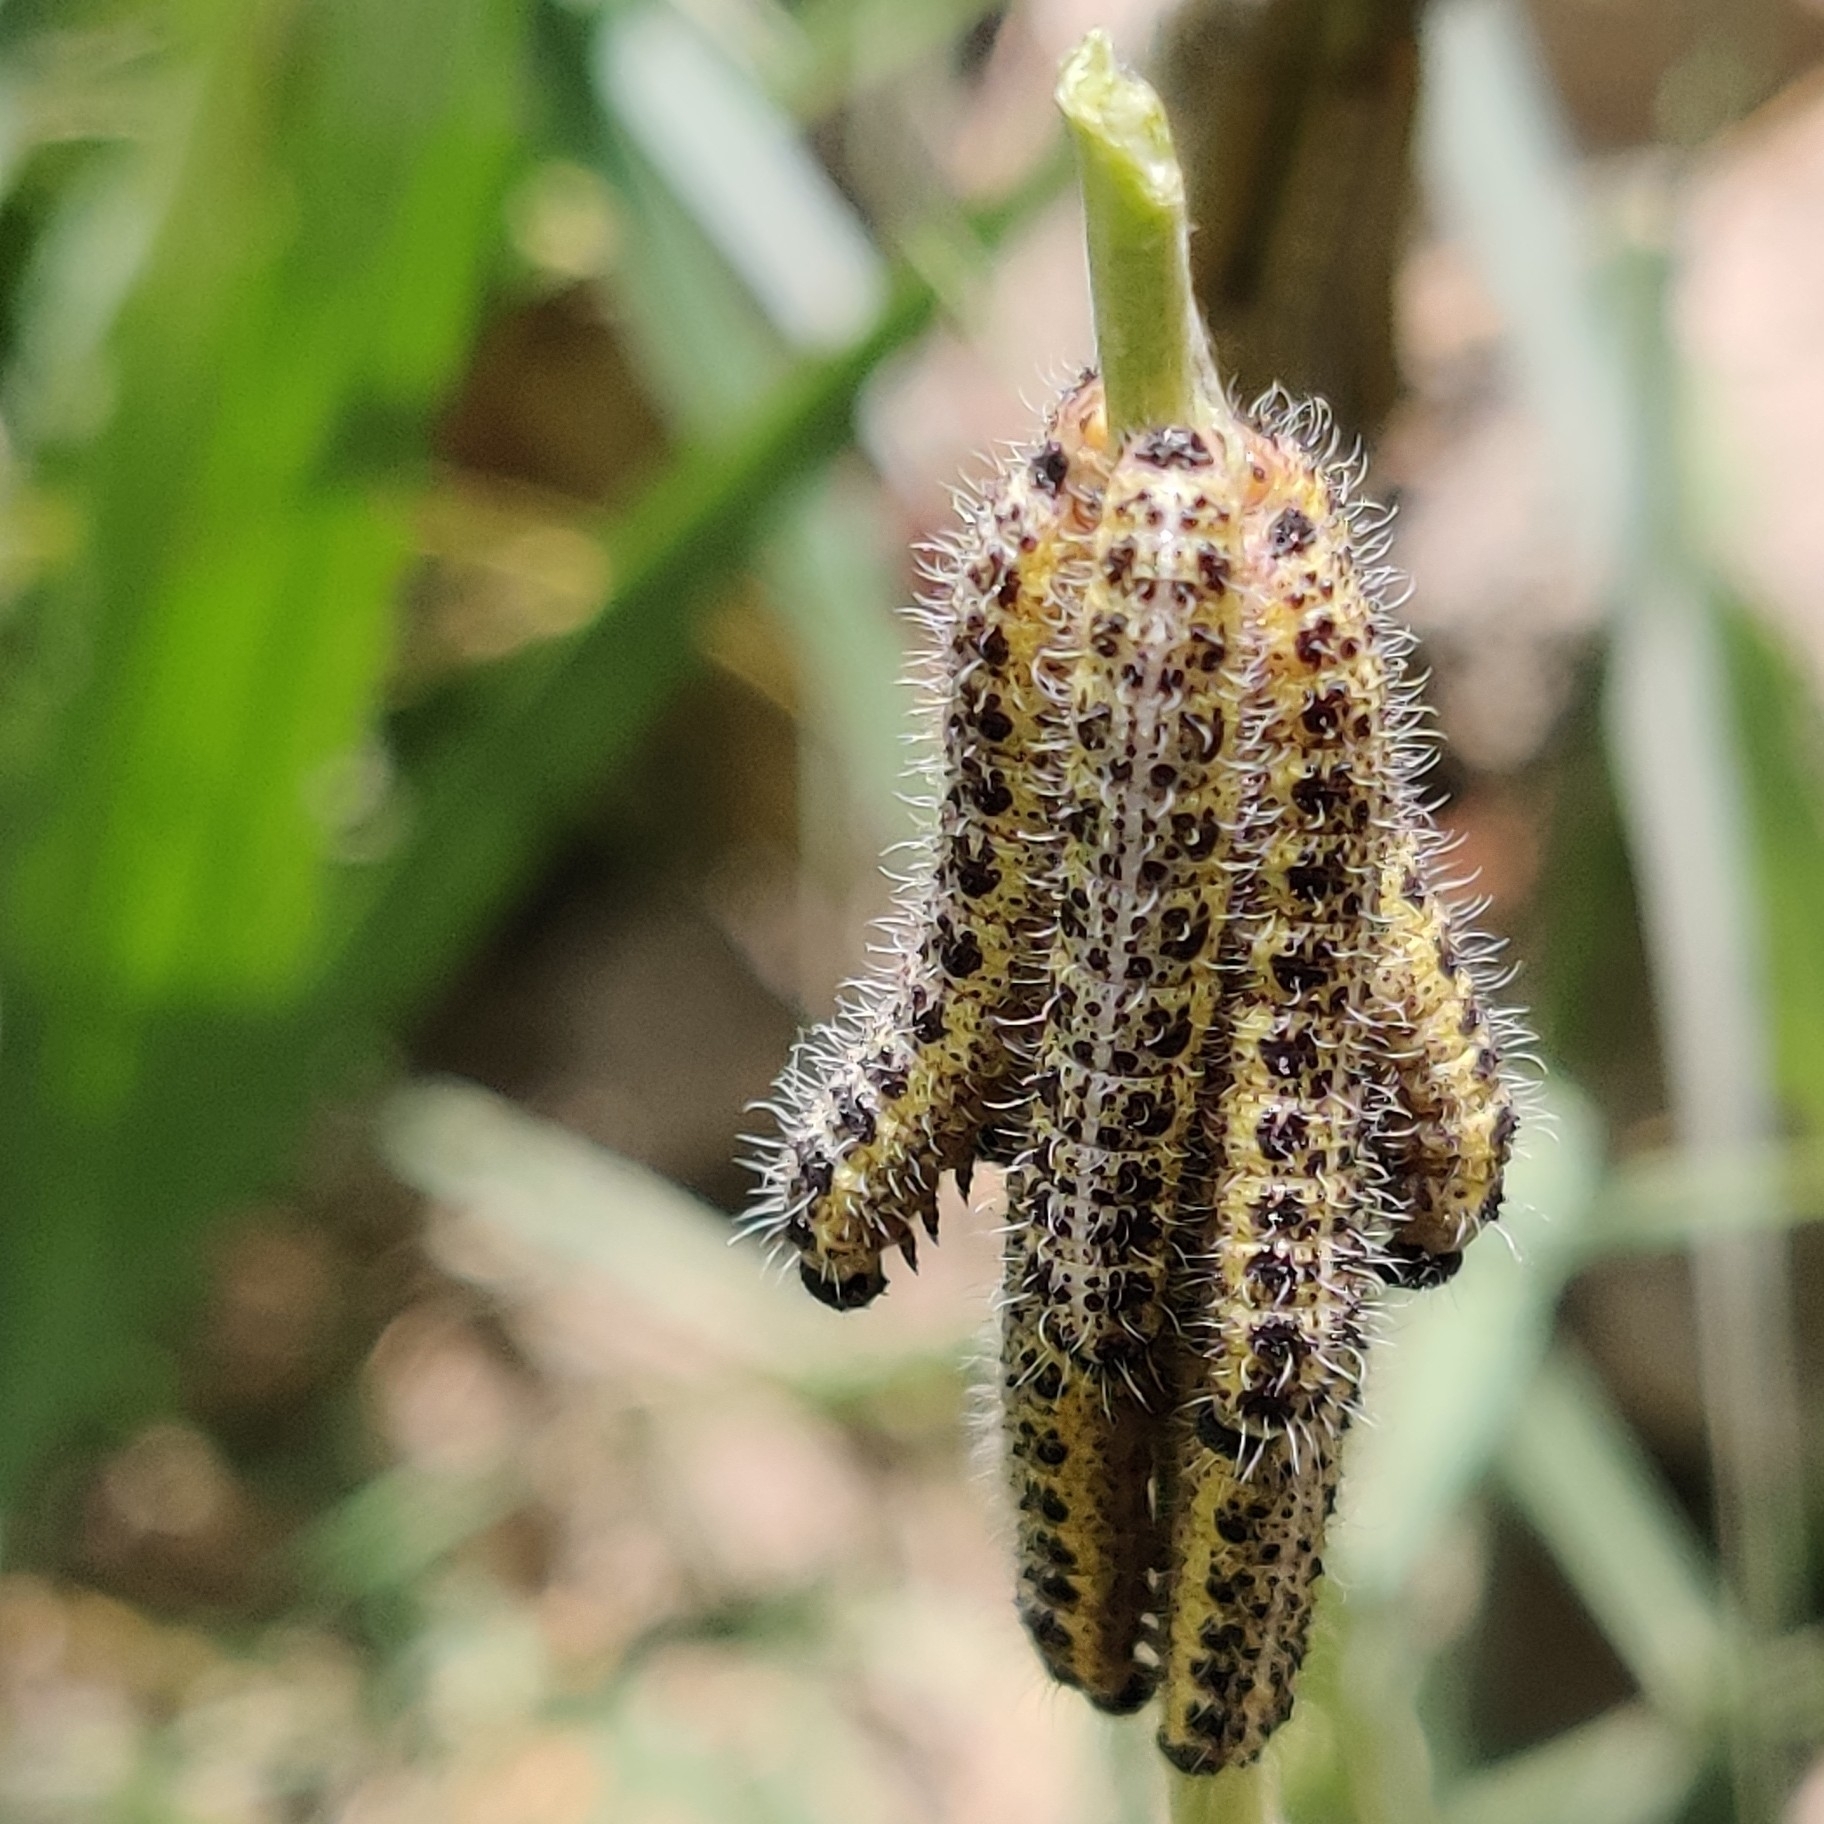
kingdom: Animalia
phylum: Arthropoda
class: Insecta
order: Lepidoptera
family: Pieridae
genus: Pieris
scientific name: Pieris brassicae
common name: Large white
